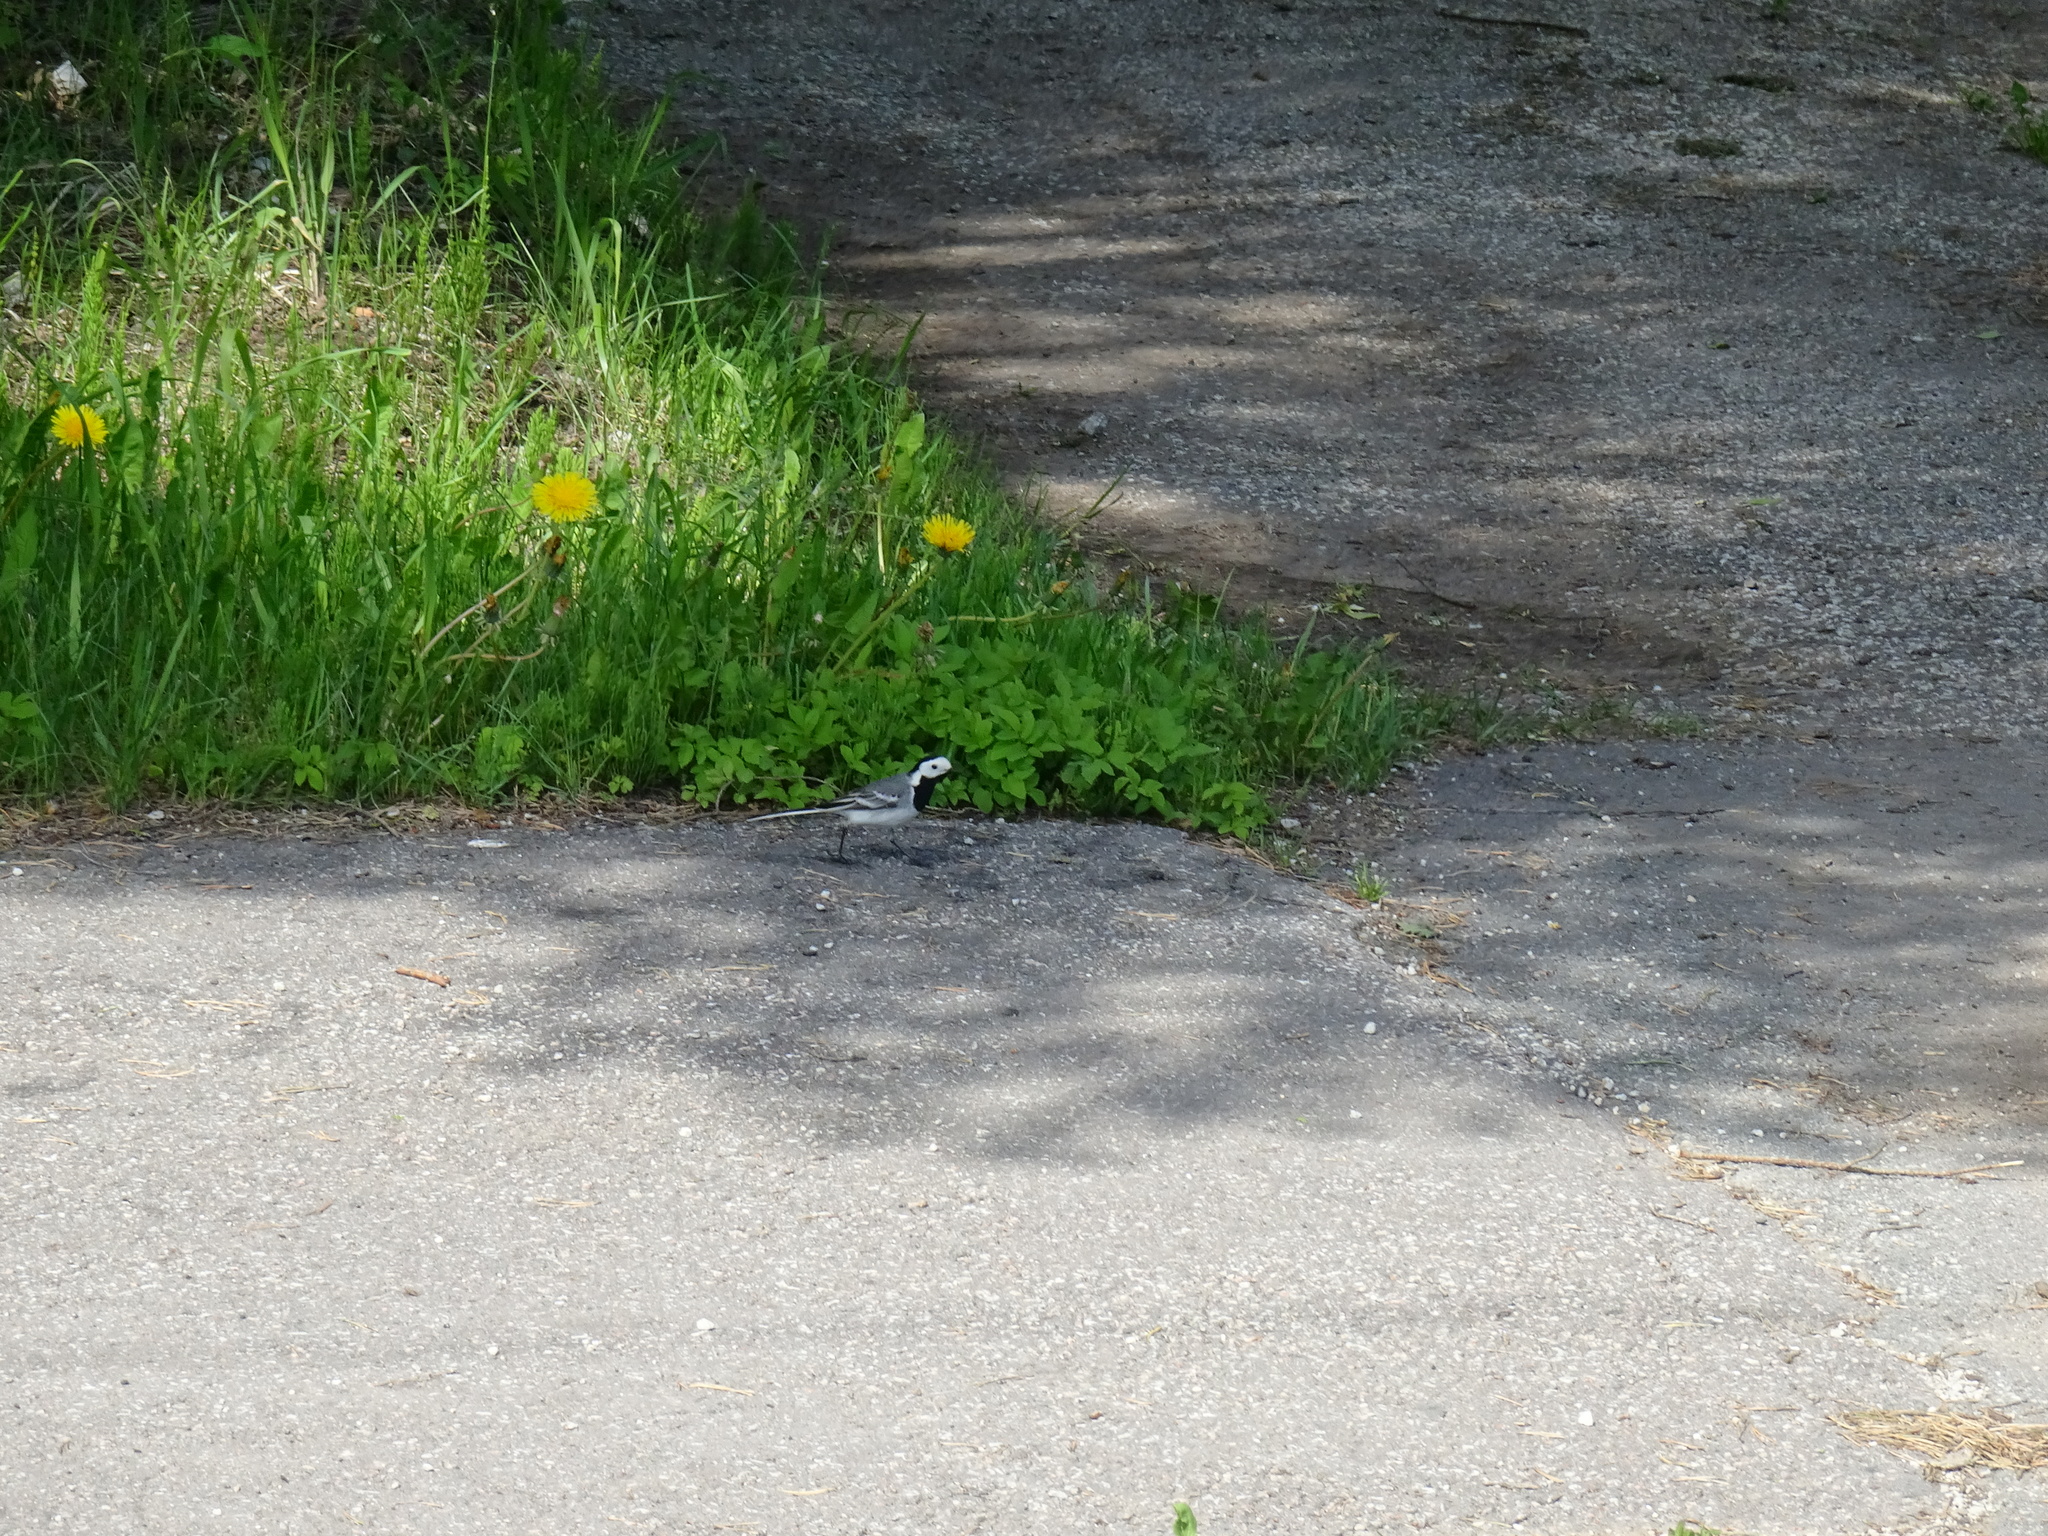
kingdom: Animalia
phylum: Chordata
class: Aves
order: Passeriformes
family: Motacillidae
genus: Motacilla
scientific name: Motacilla alba
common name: White wagtail
